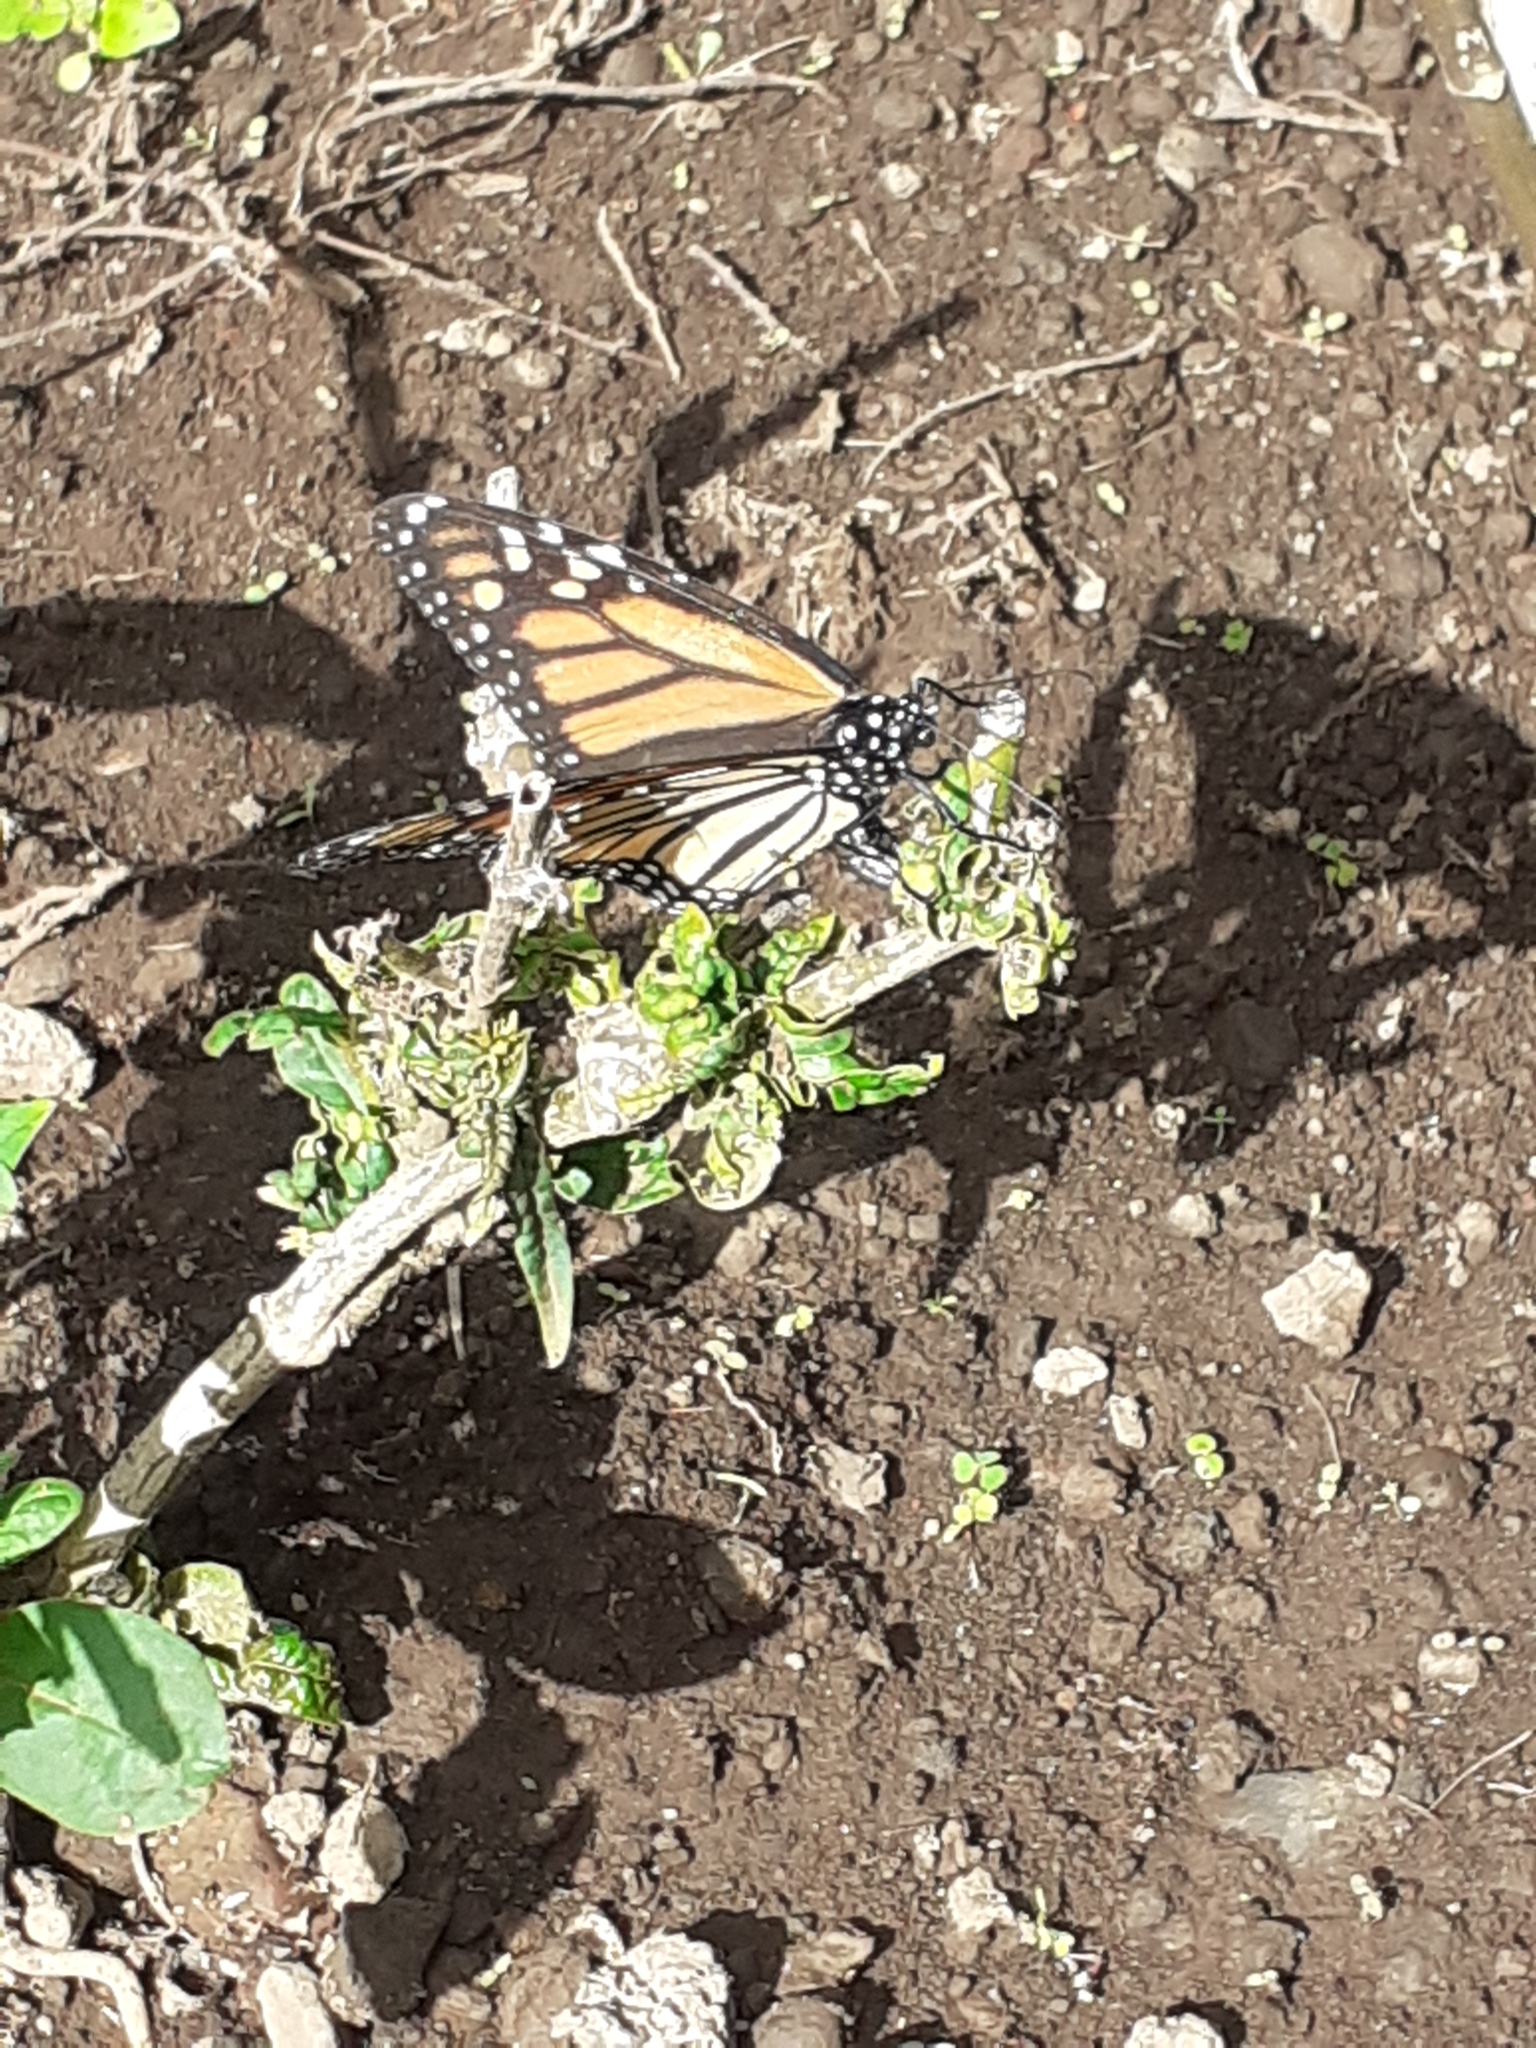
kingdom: Animalia
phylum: Arthropoda
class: Insecta
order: Lepidoptera
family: Nymphalidae
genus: Danaus
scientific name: Danaus plexippus
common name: Monarch
